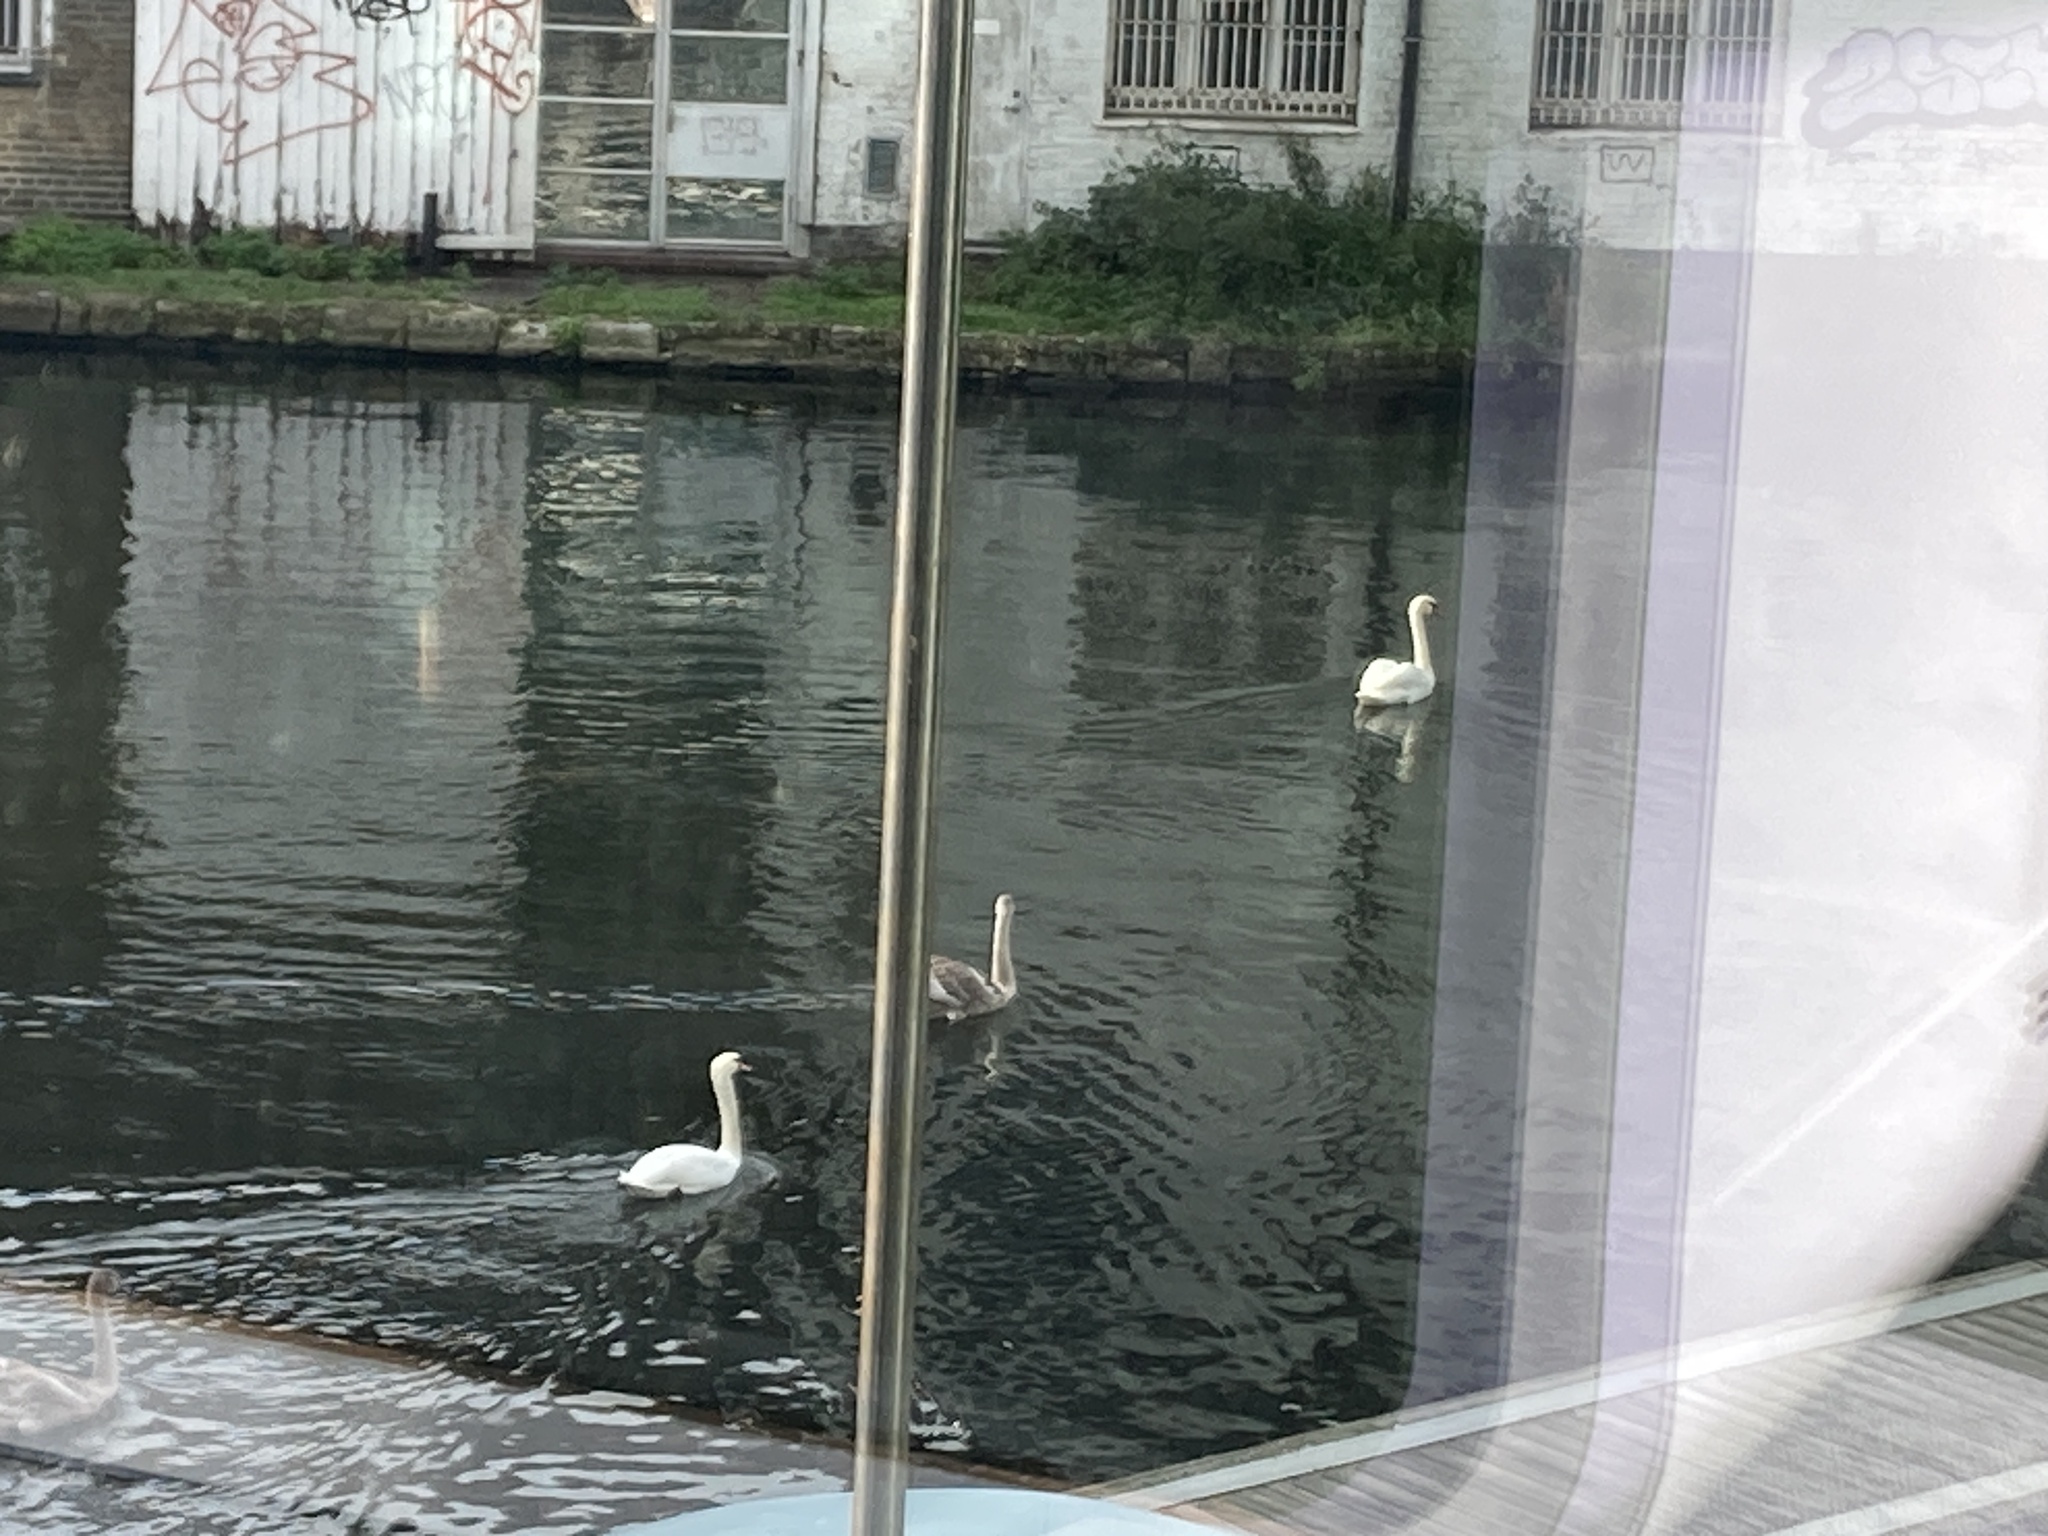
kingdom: Animalia
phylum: Chordata
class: Aves
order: Anseriformes
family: Anatidae
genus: Cygnus
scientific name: Cygnus olor
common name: Mute swan
